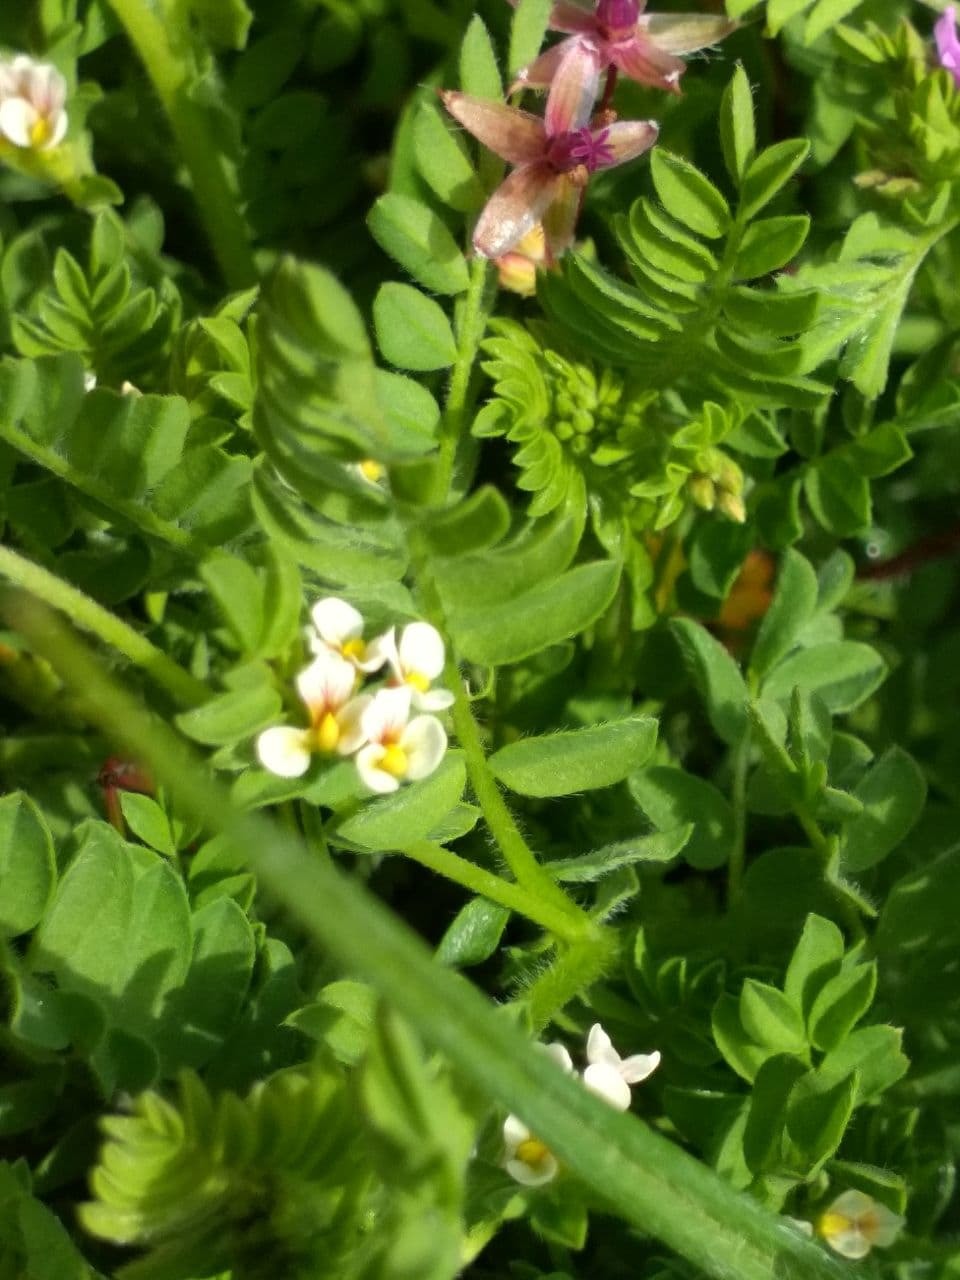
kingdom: Plantae
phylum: Tracheophyta
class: Magnoliopsida
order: Fabales
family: Fabaceae
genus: Ornithopus
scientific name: Ornithopus perpusillus
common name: Bird's-foot
